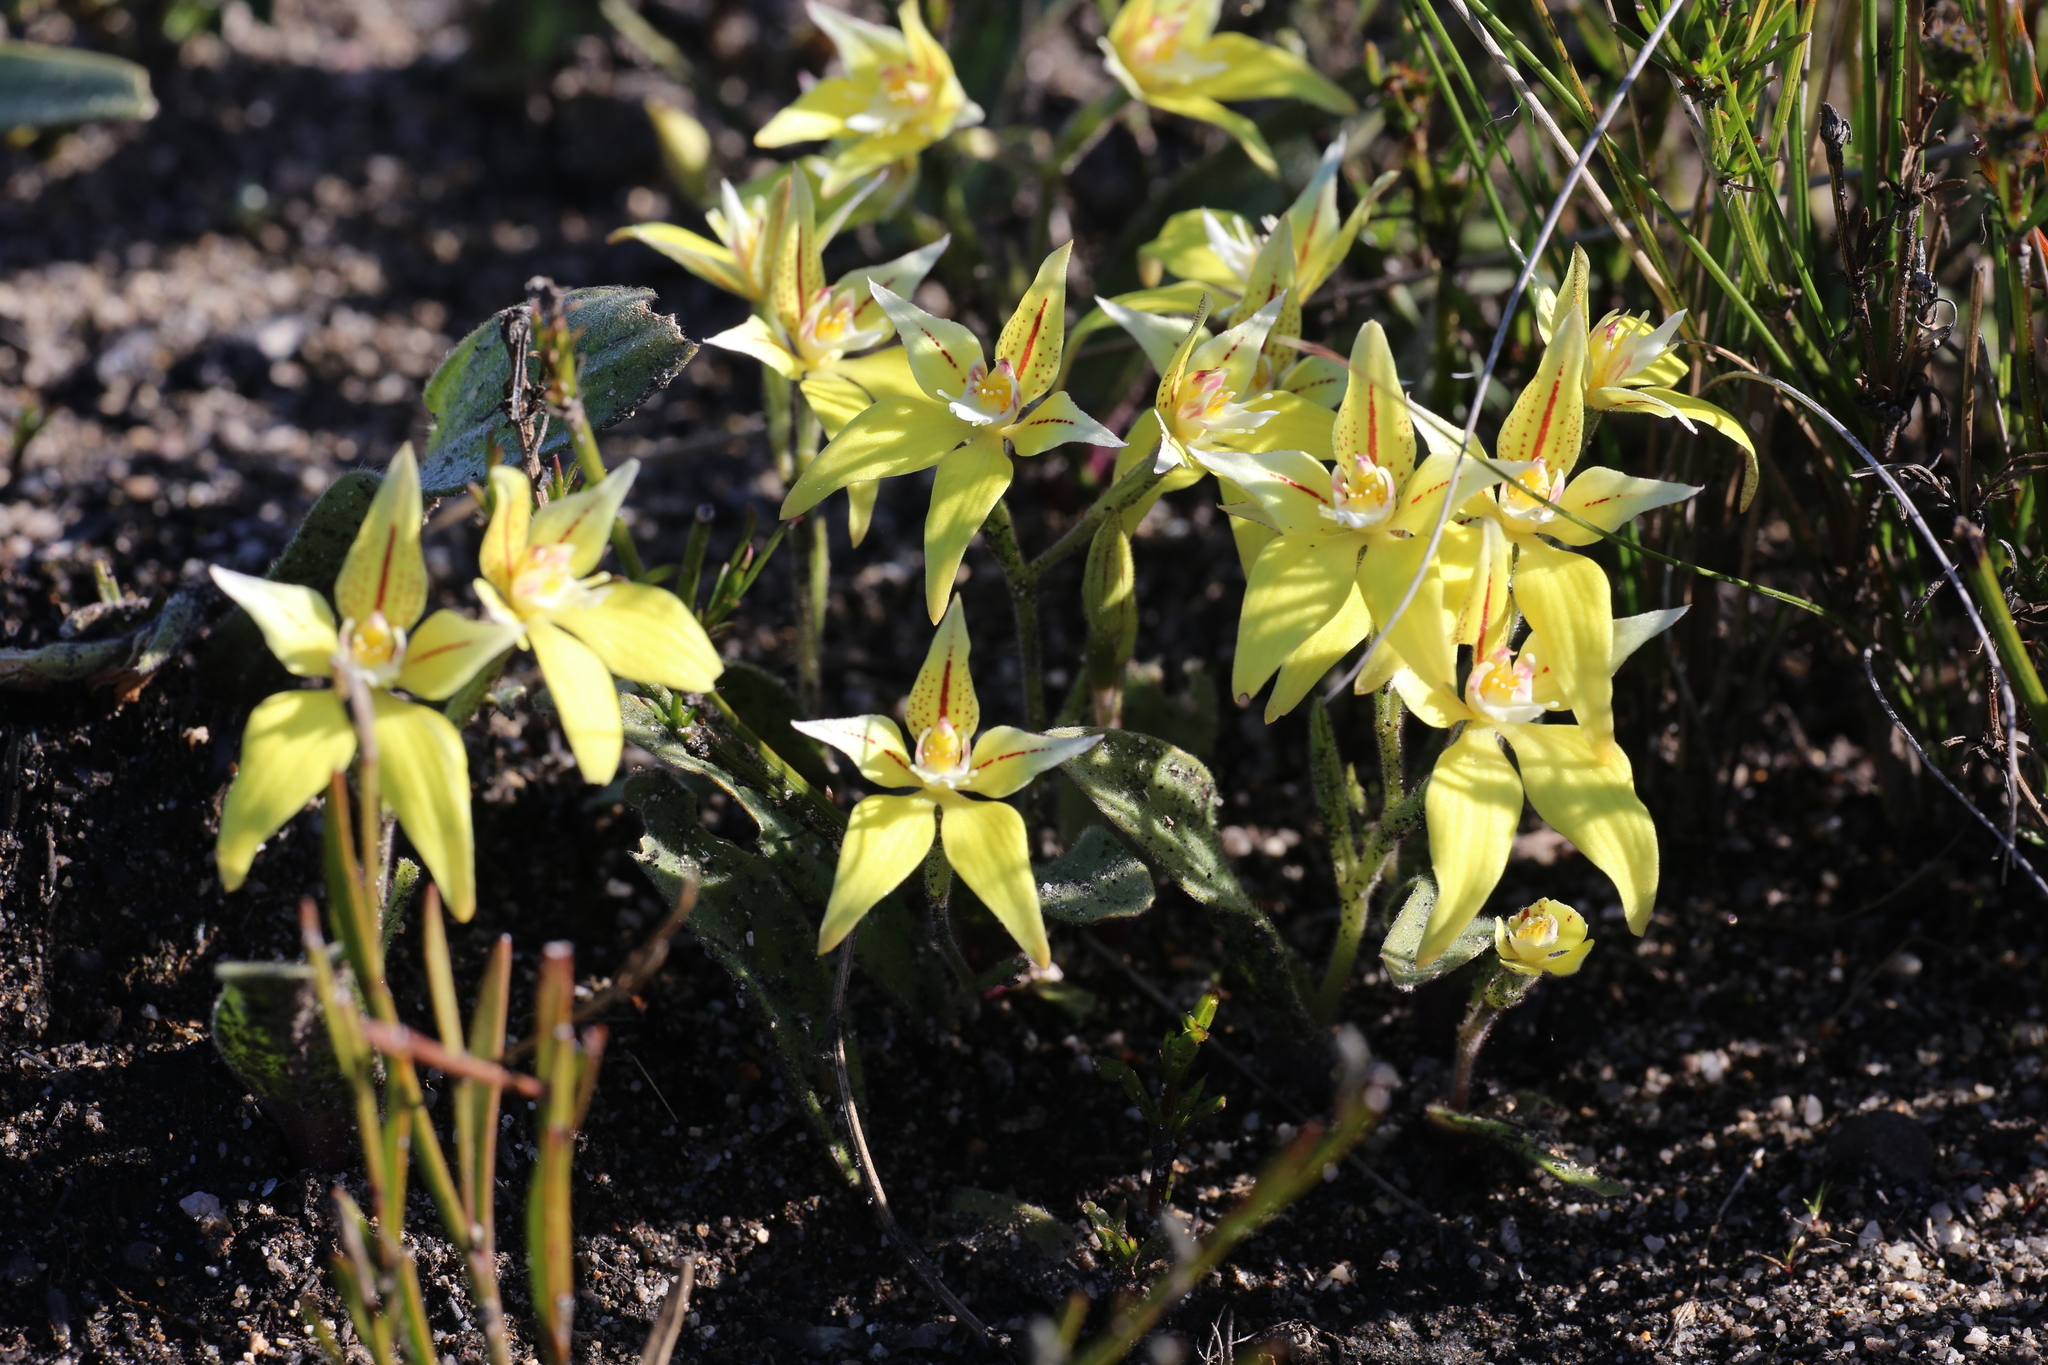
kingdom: Plantae
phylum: Tracheophyta
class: Liliopsida
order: Asparagales
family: Orchidaceae
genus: Caladenia
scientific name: Caladenia flava
